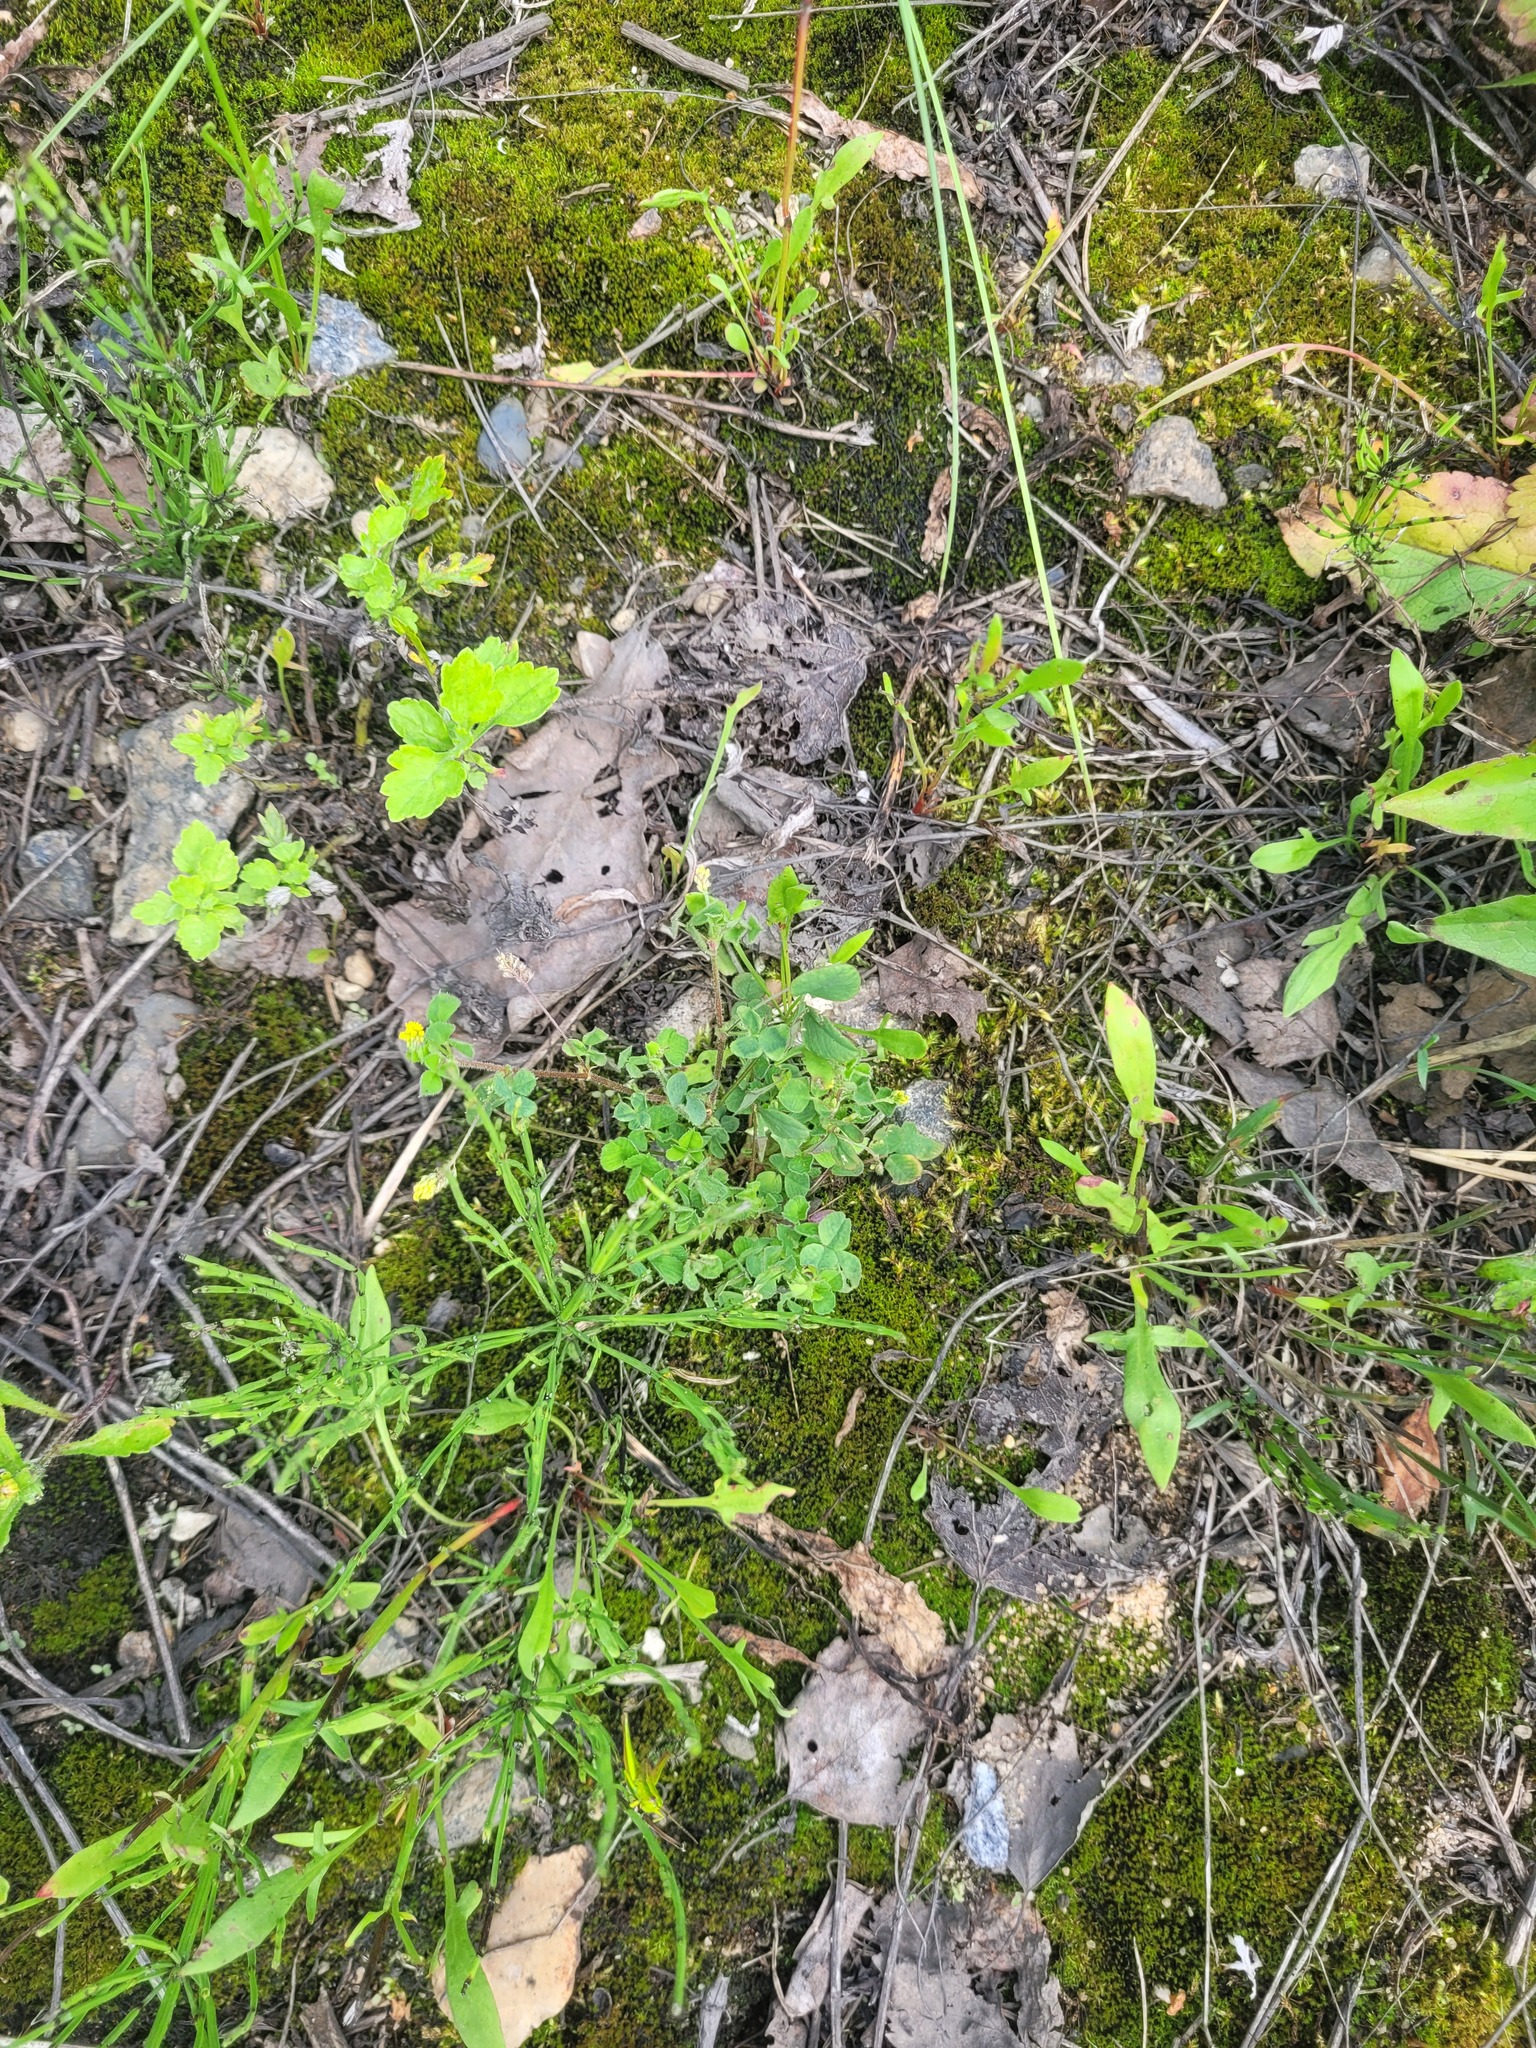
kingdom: Plantae
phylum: Tracheophyta
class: Magnoliopsida
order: Fabales
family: Fabaceae
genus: Medicago
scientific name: Medicago lupulina
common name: Black medick
